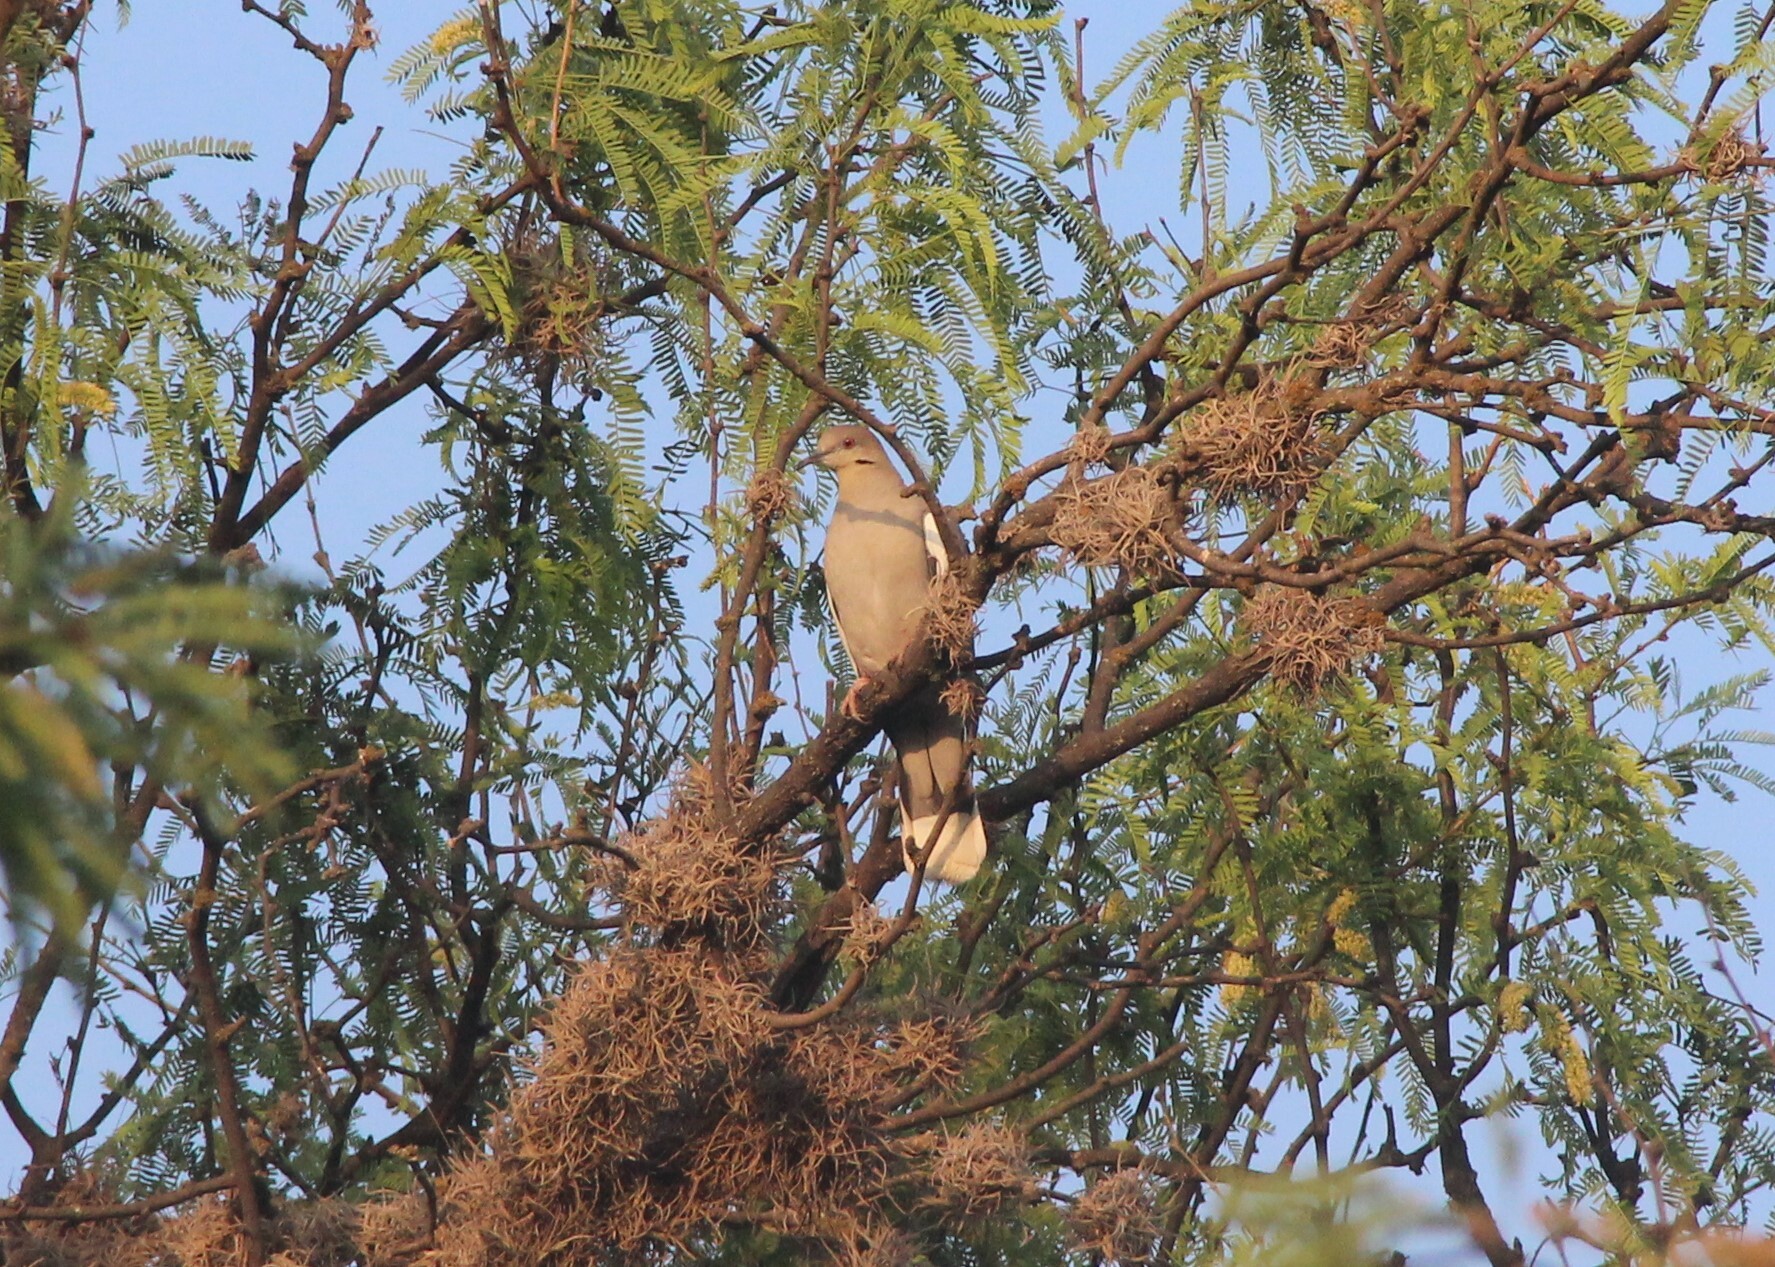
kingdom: Animalia
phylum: Chordata
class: Aves
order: Columbiformes
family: Columbidae
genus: Zenaida
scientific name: Zenaida asiatica
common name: White-winged dove
